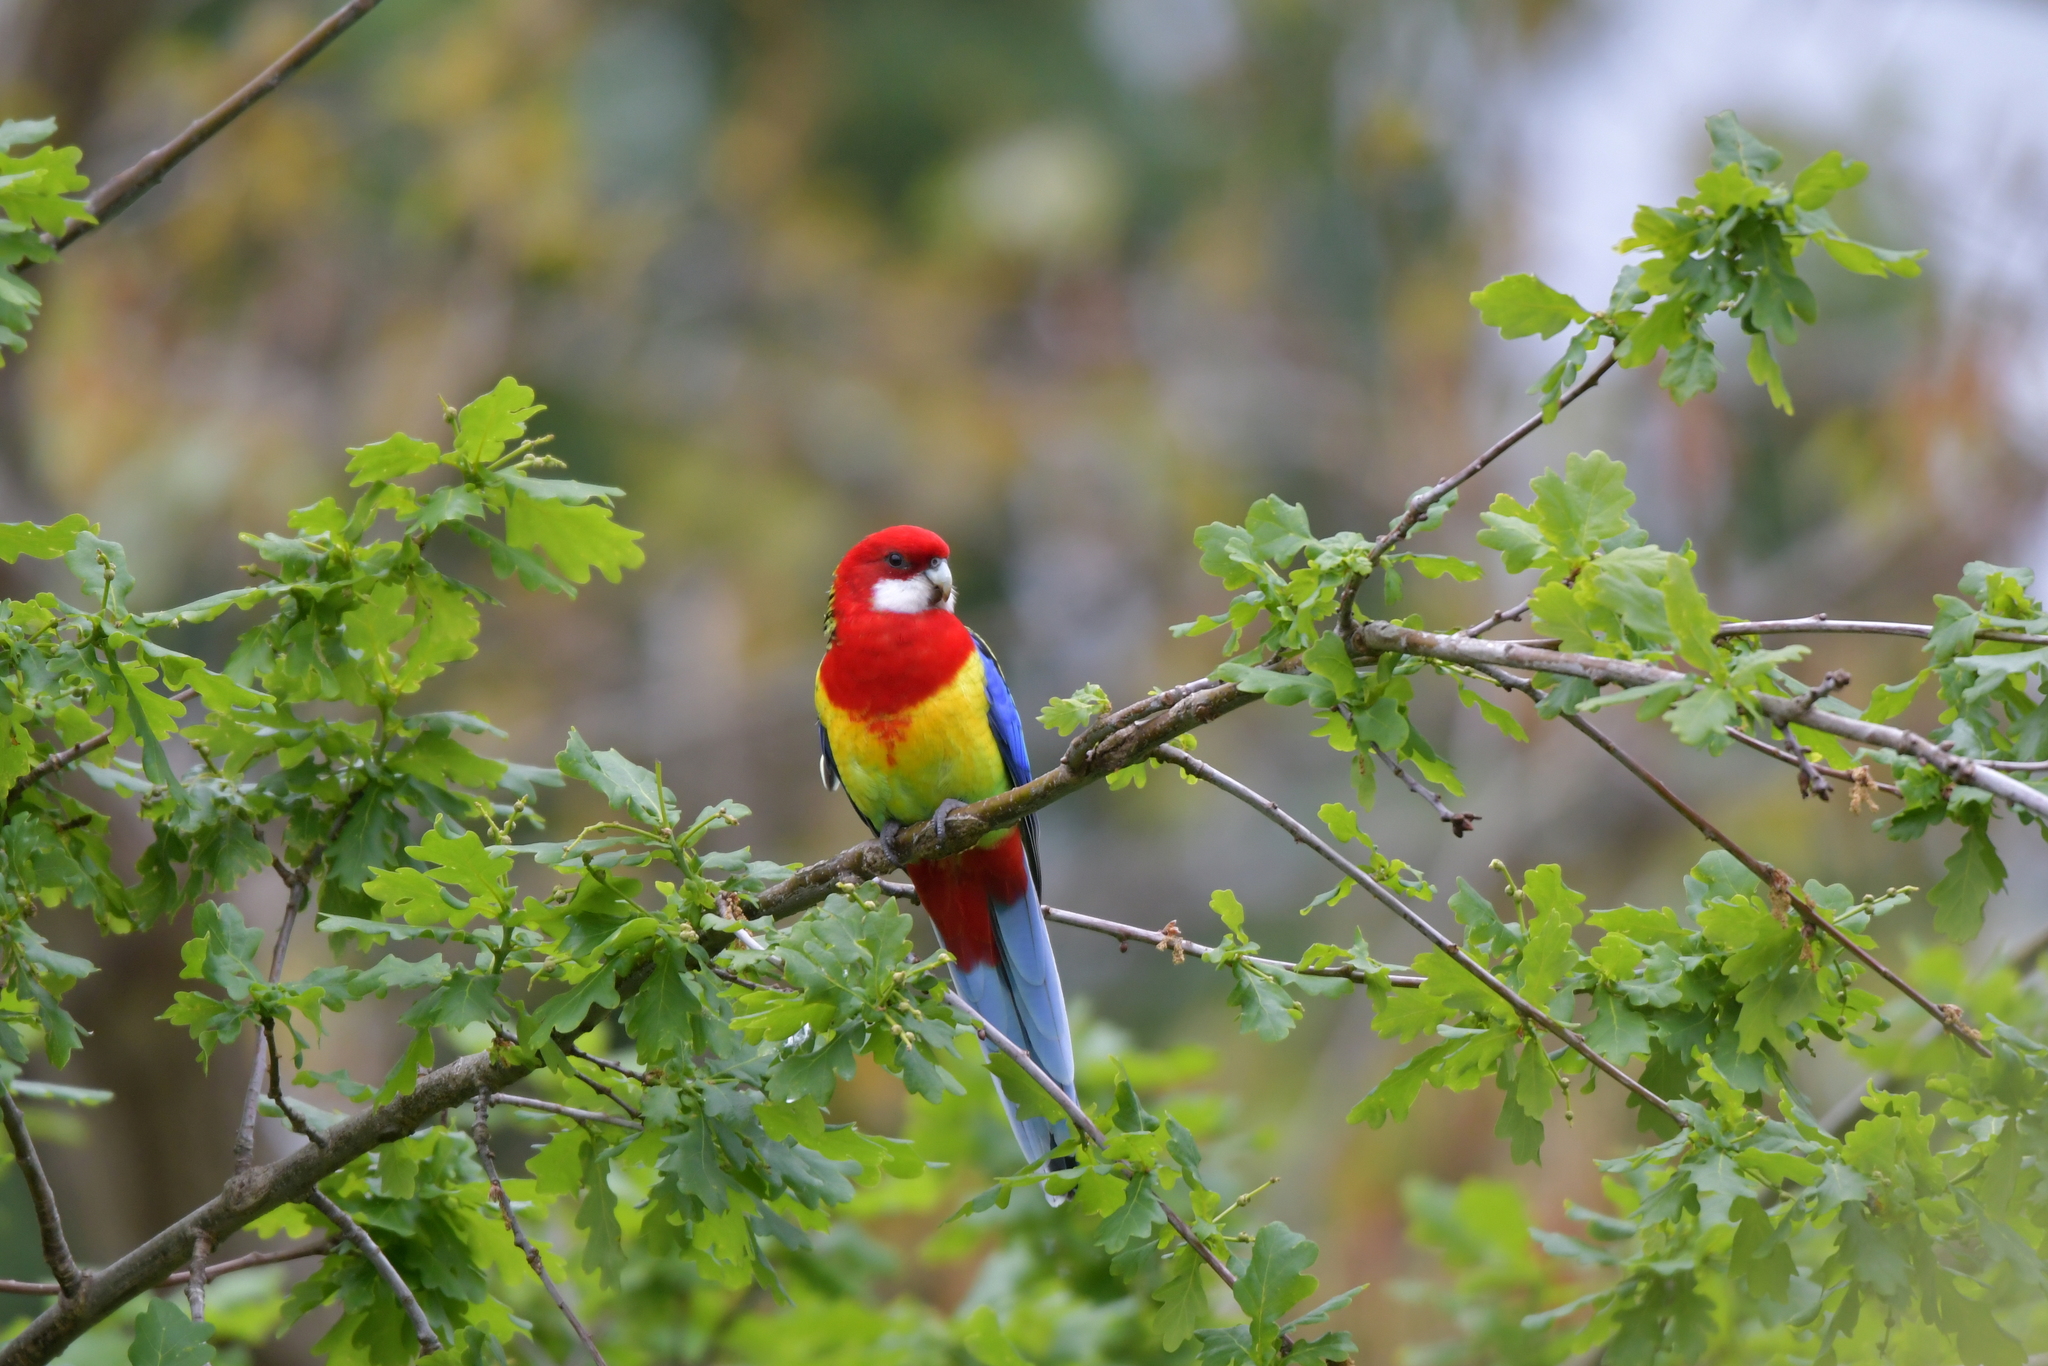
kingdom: Animalia
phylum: Chordata
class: Aves
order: Psittaciformes
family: Psittacidae
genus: Platycercus
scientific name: Platycercus eximius
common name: Eastern rosella
